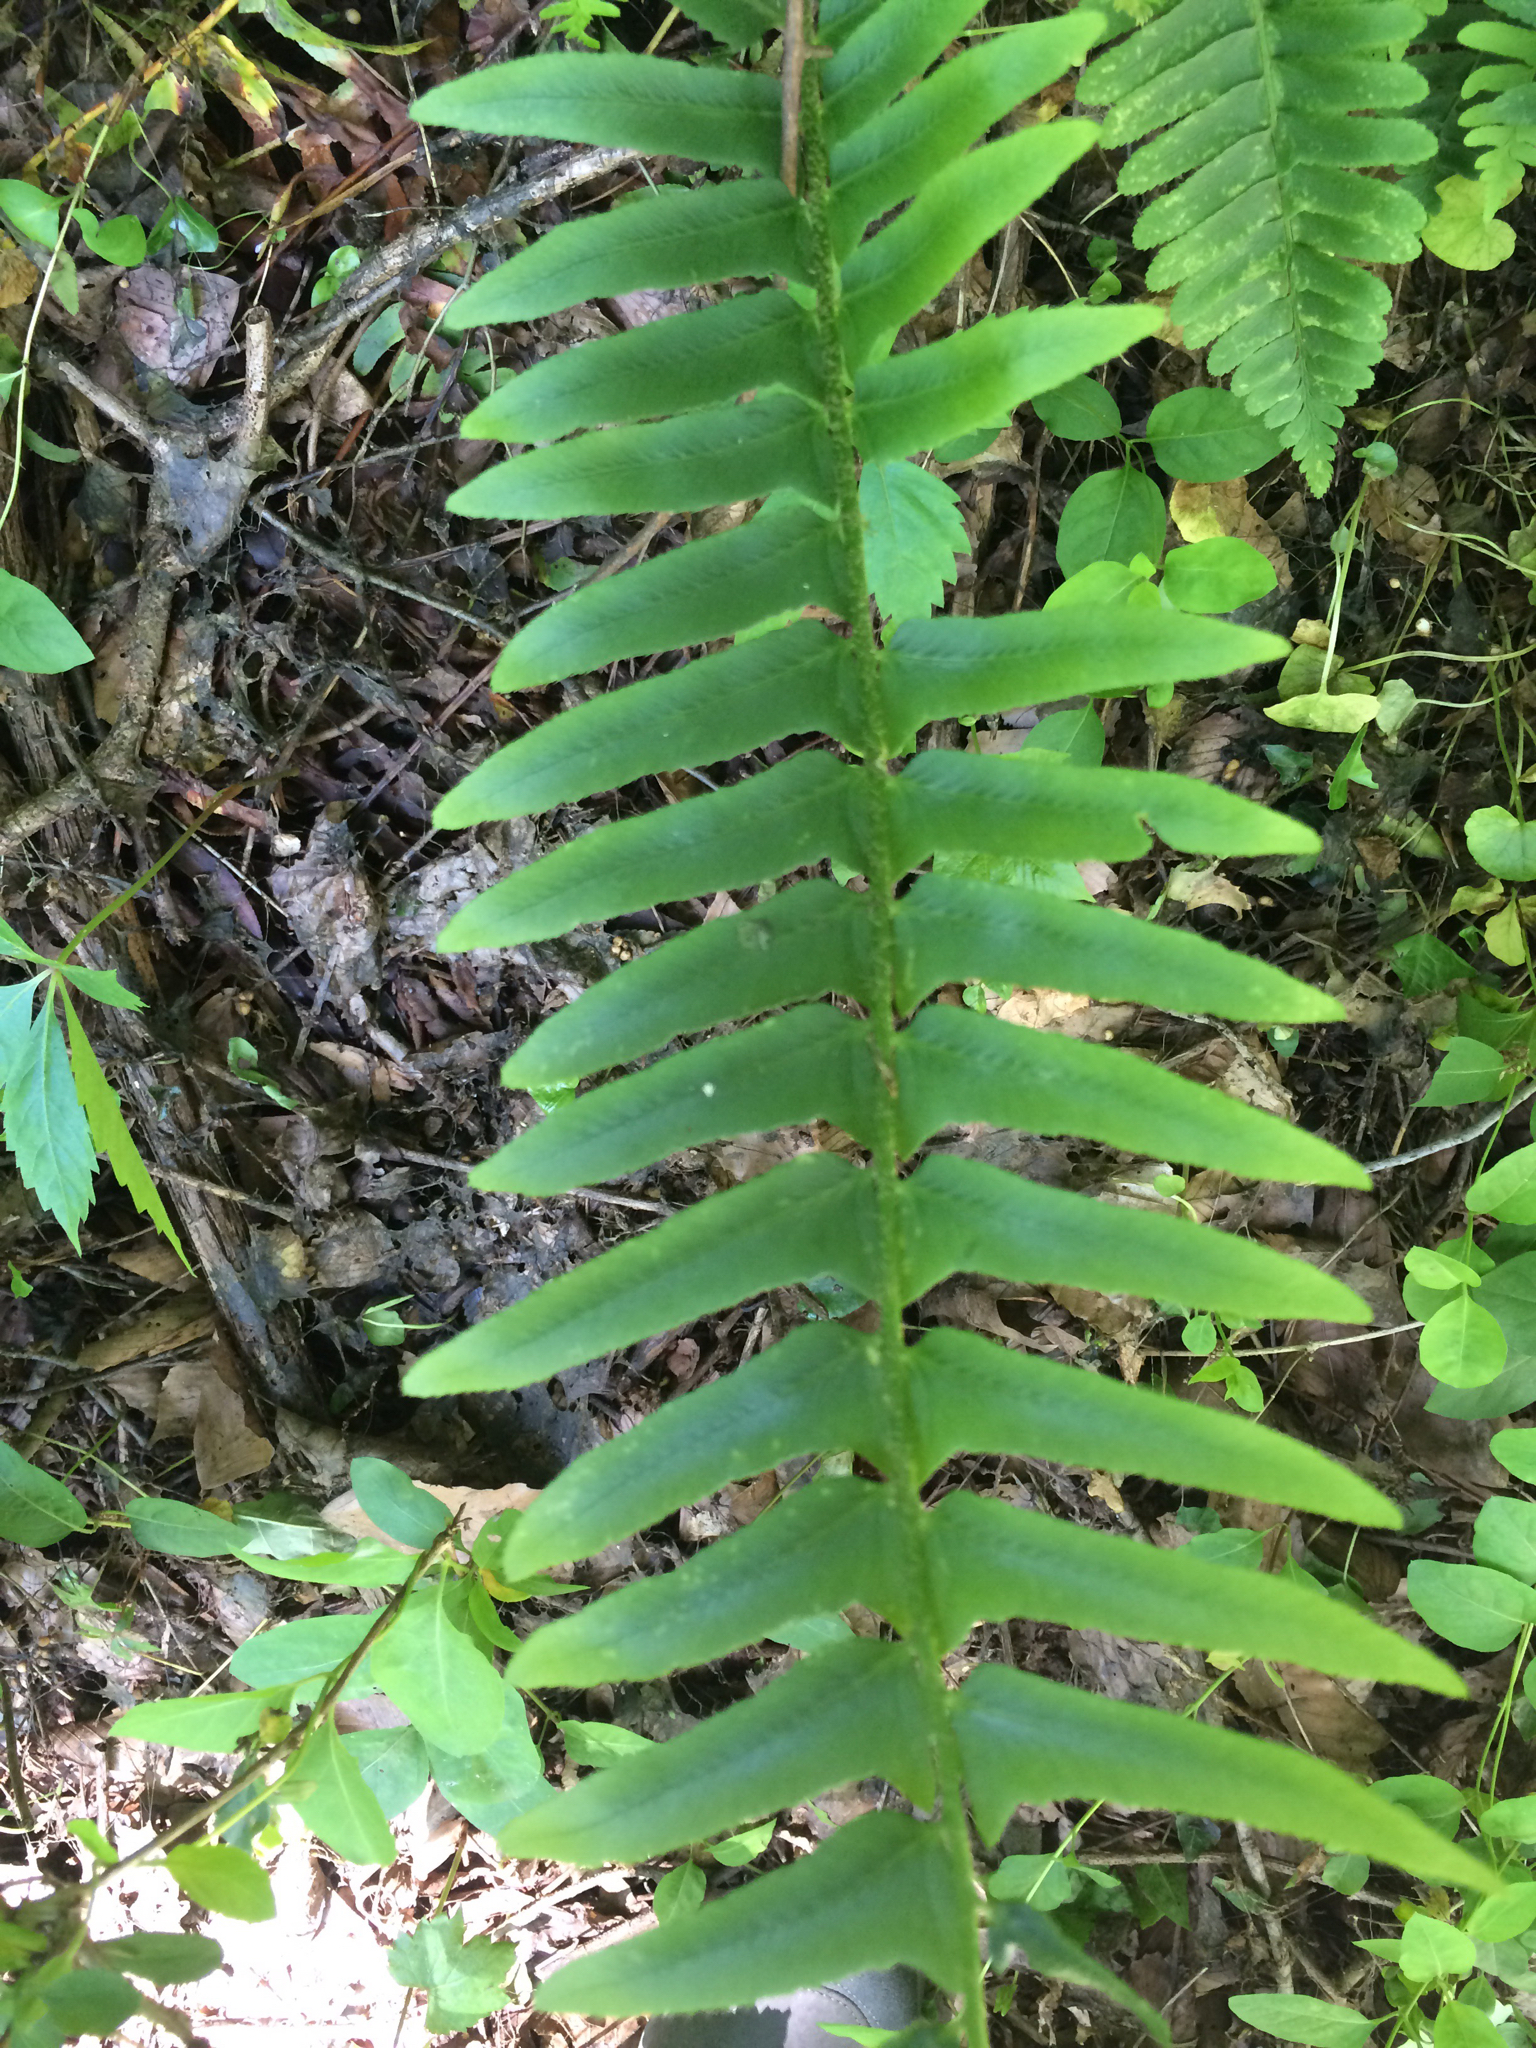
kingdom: Plantae
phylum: Tracheophyta
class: Polypodiopsida
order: Polypodiales
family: Dryopteridaceae
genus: Polystichum
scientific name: Polystichum acrostichoides
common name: Christmas fern
